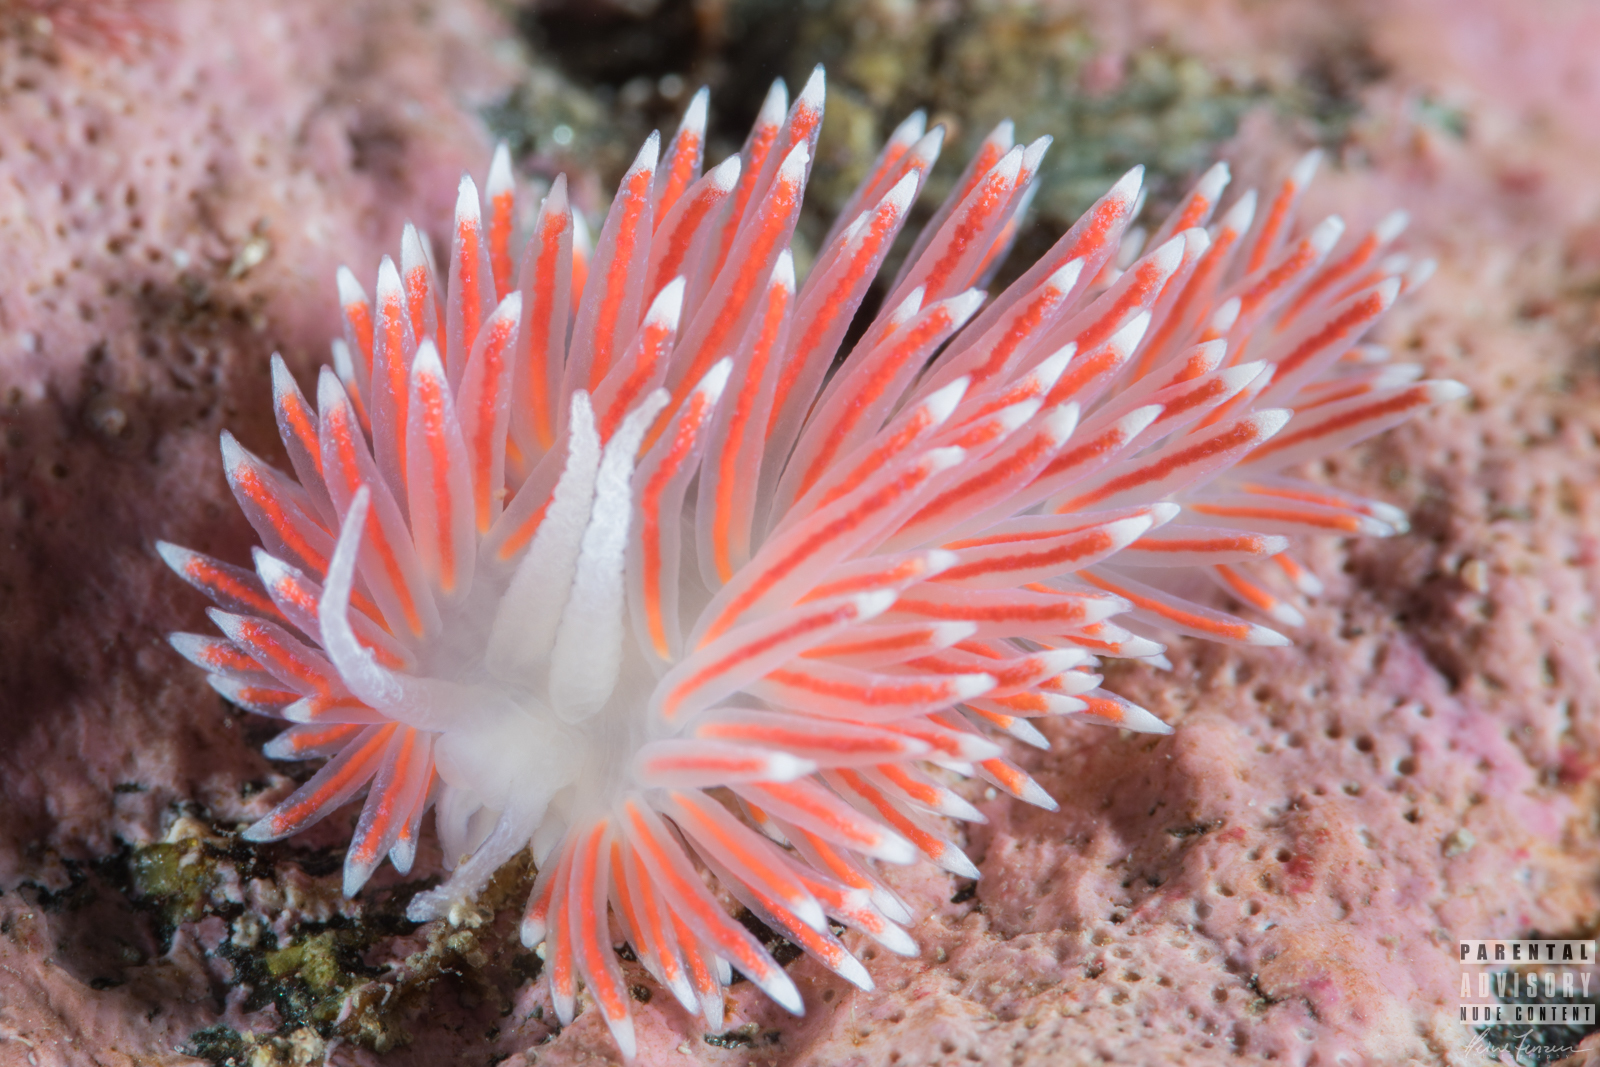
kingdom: Animalia
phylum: Mollusca
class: Gastropoda
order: Nudibranchia
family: Flabellinidae
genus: Carronella
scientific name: Carronella pellucida
